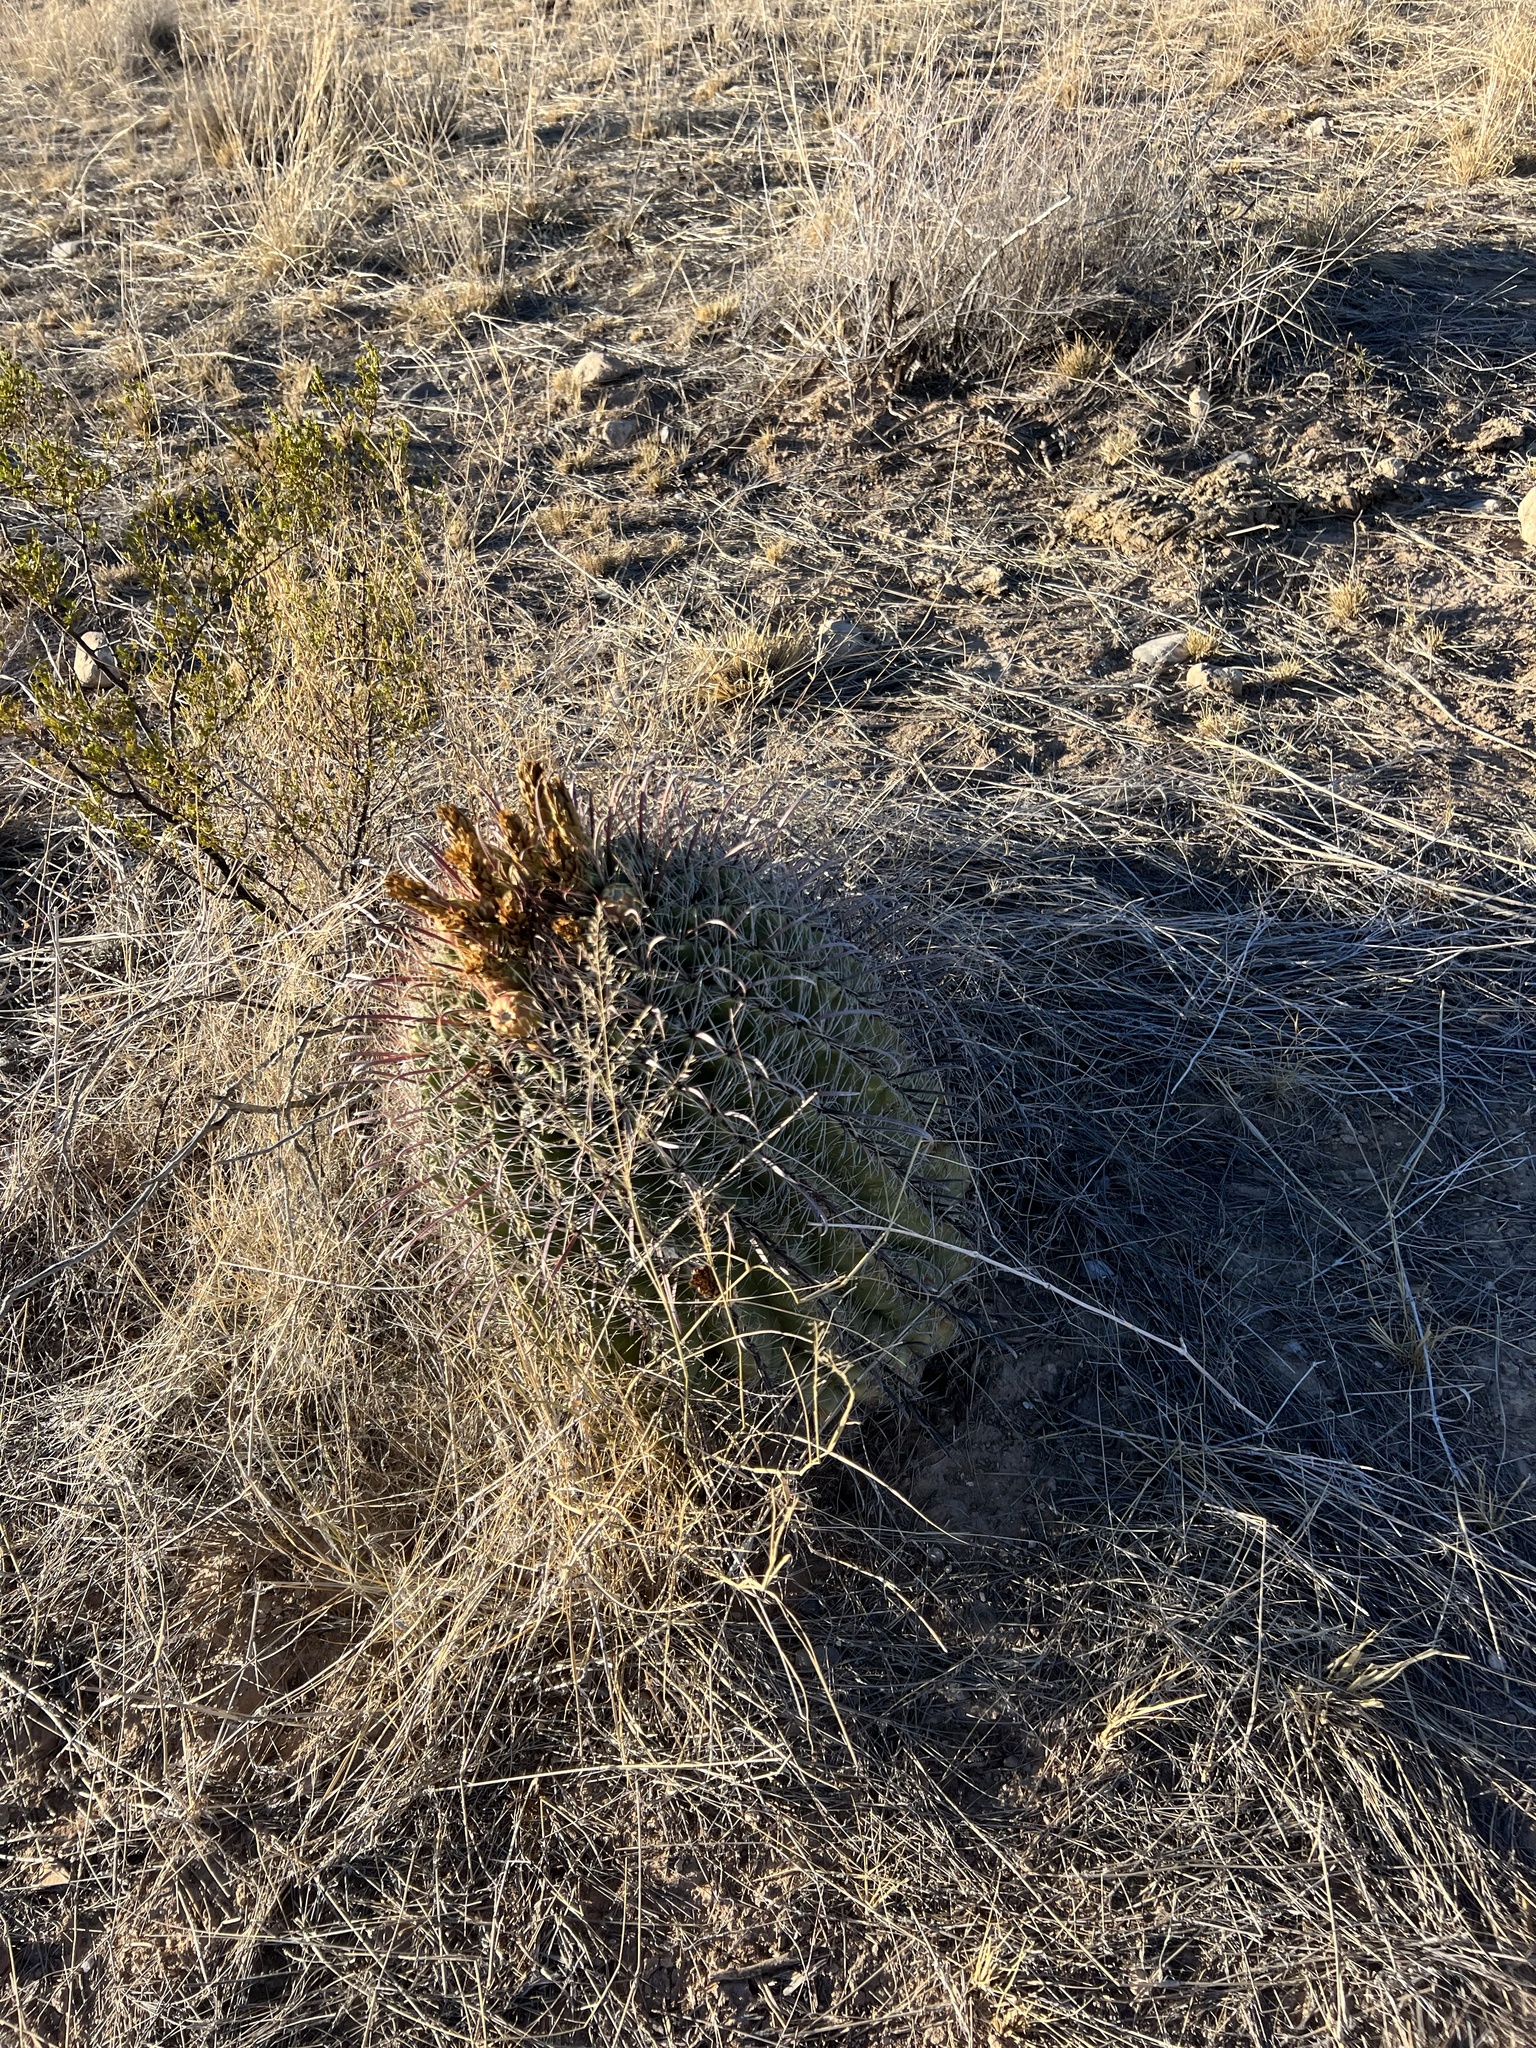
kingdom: Plantae
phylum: Tracheophyta
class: Magnoliopsida
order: Caryophyllales
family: Cactaceae
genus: Ferocactus
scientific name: Ferocactus wislizeni
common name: Candy barrel cactus
